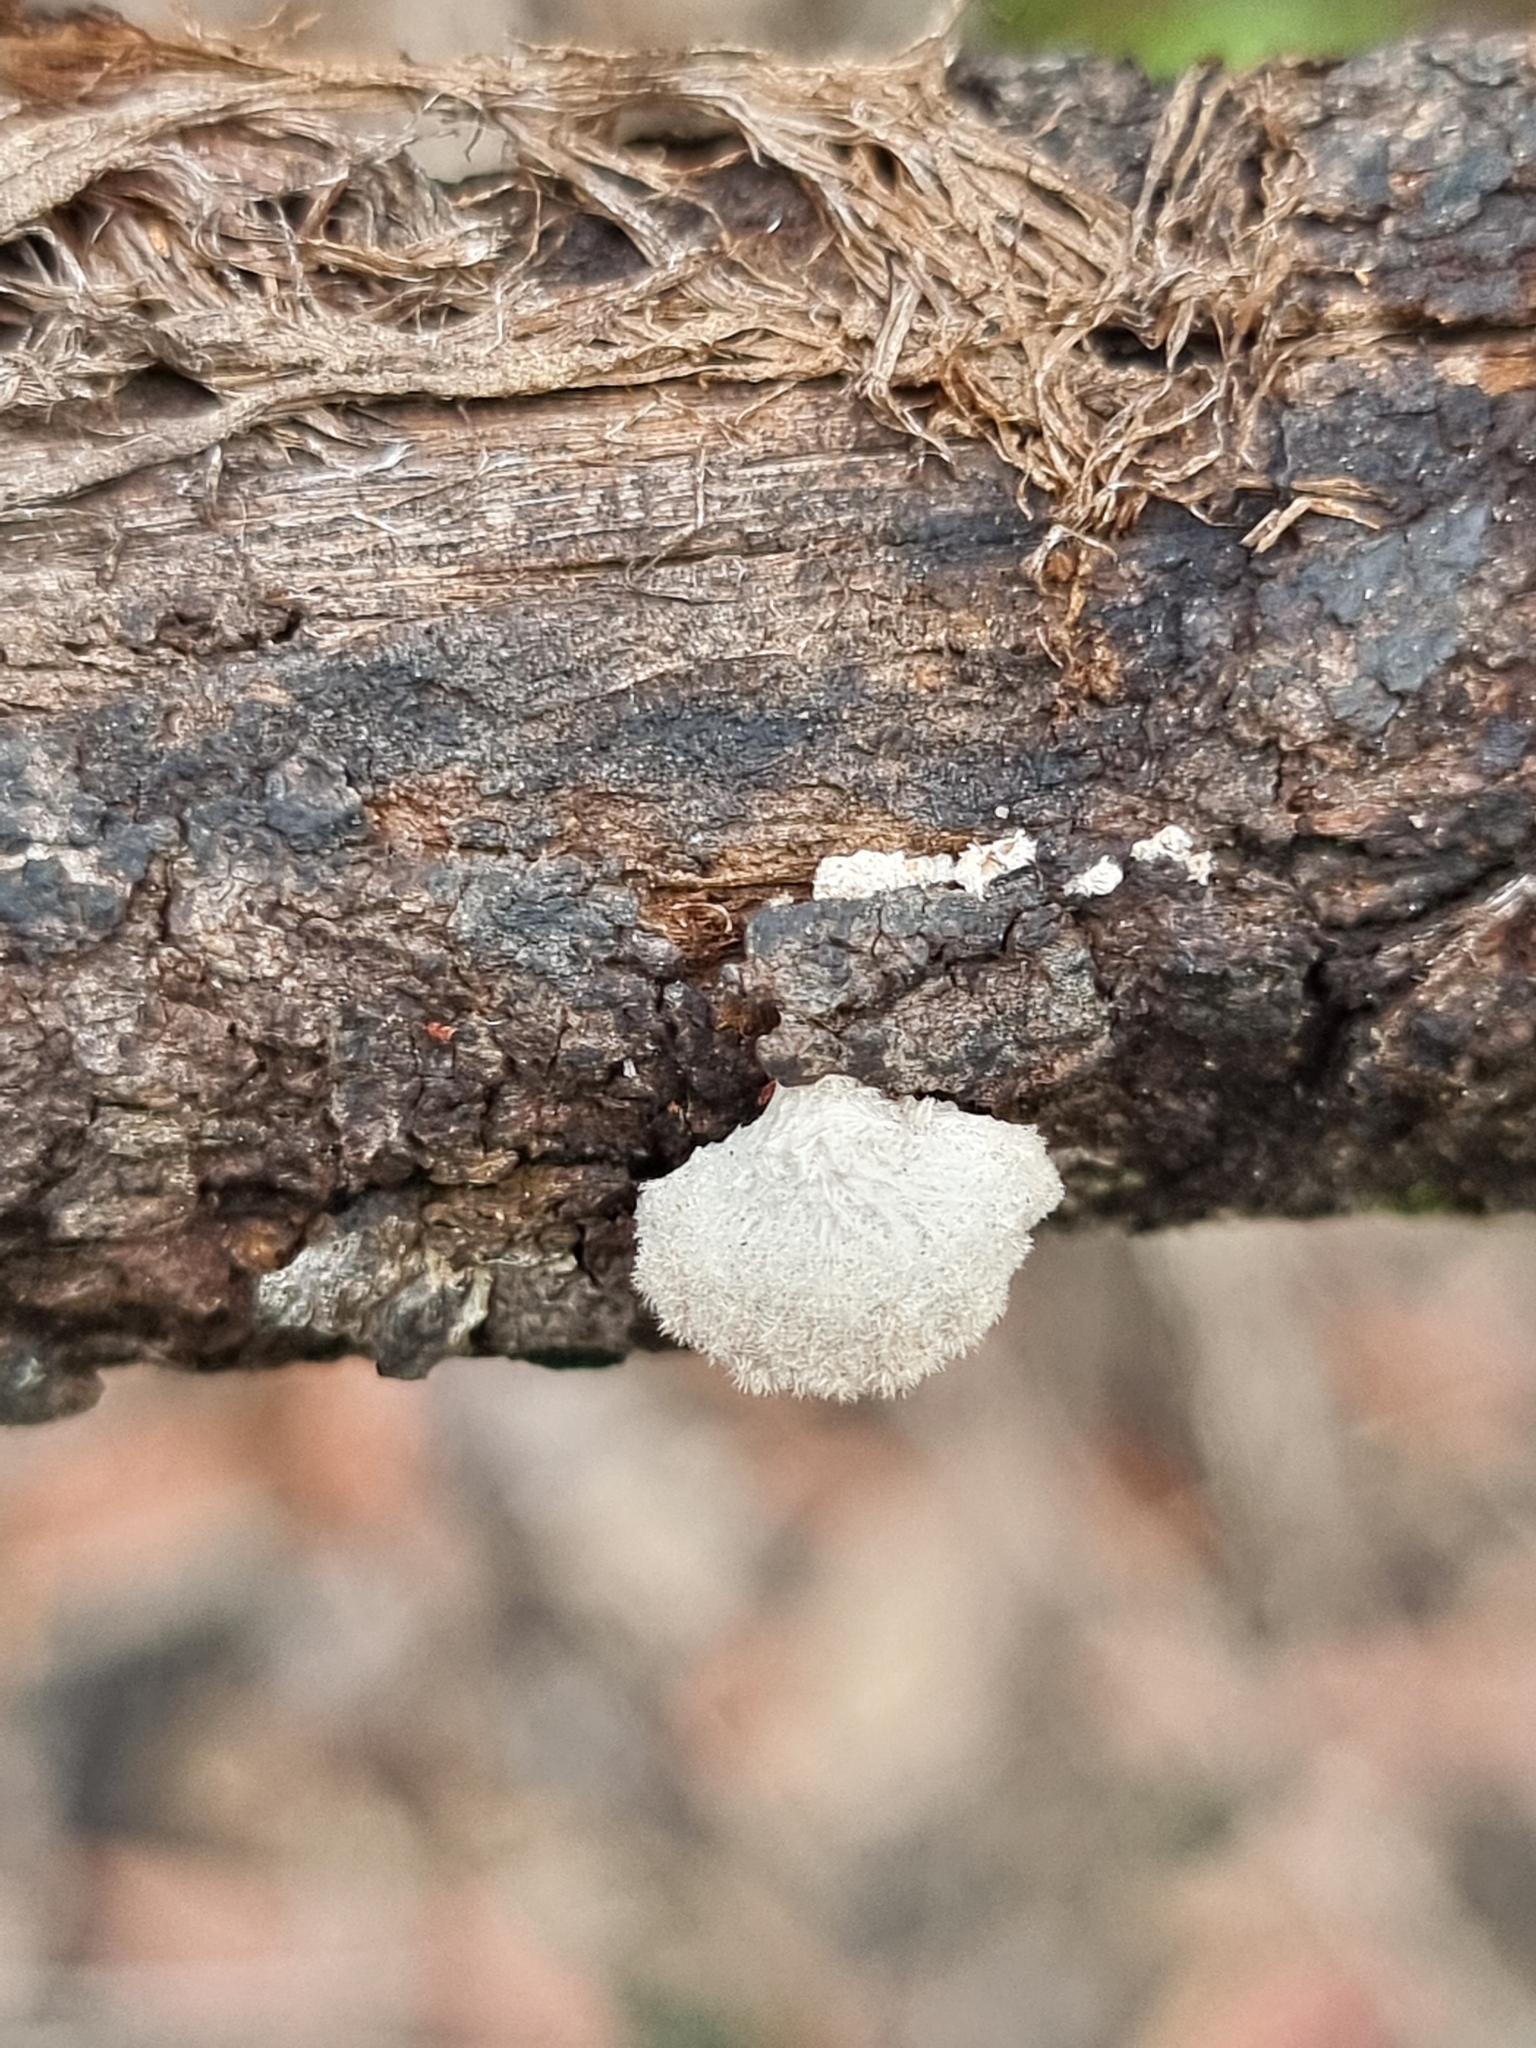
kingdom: Fungi
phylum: Basidiomycota
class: Agaricomycetes
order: Agaricales
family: Schizophyllaceae
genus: Schizophyllum
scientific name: Schizophyllum commune
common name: Common porecrust
